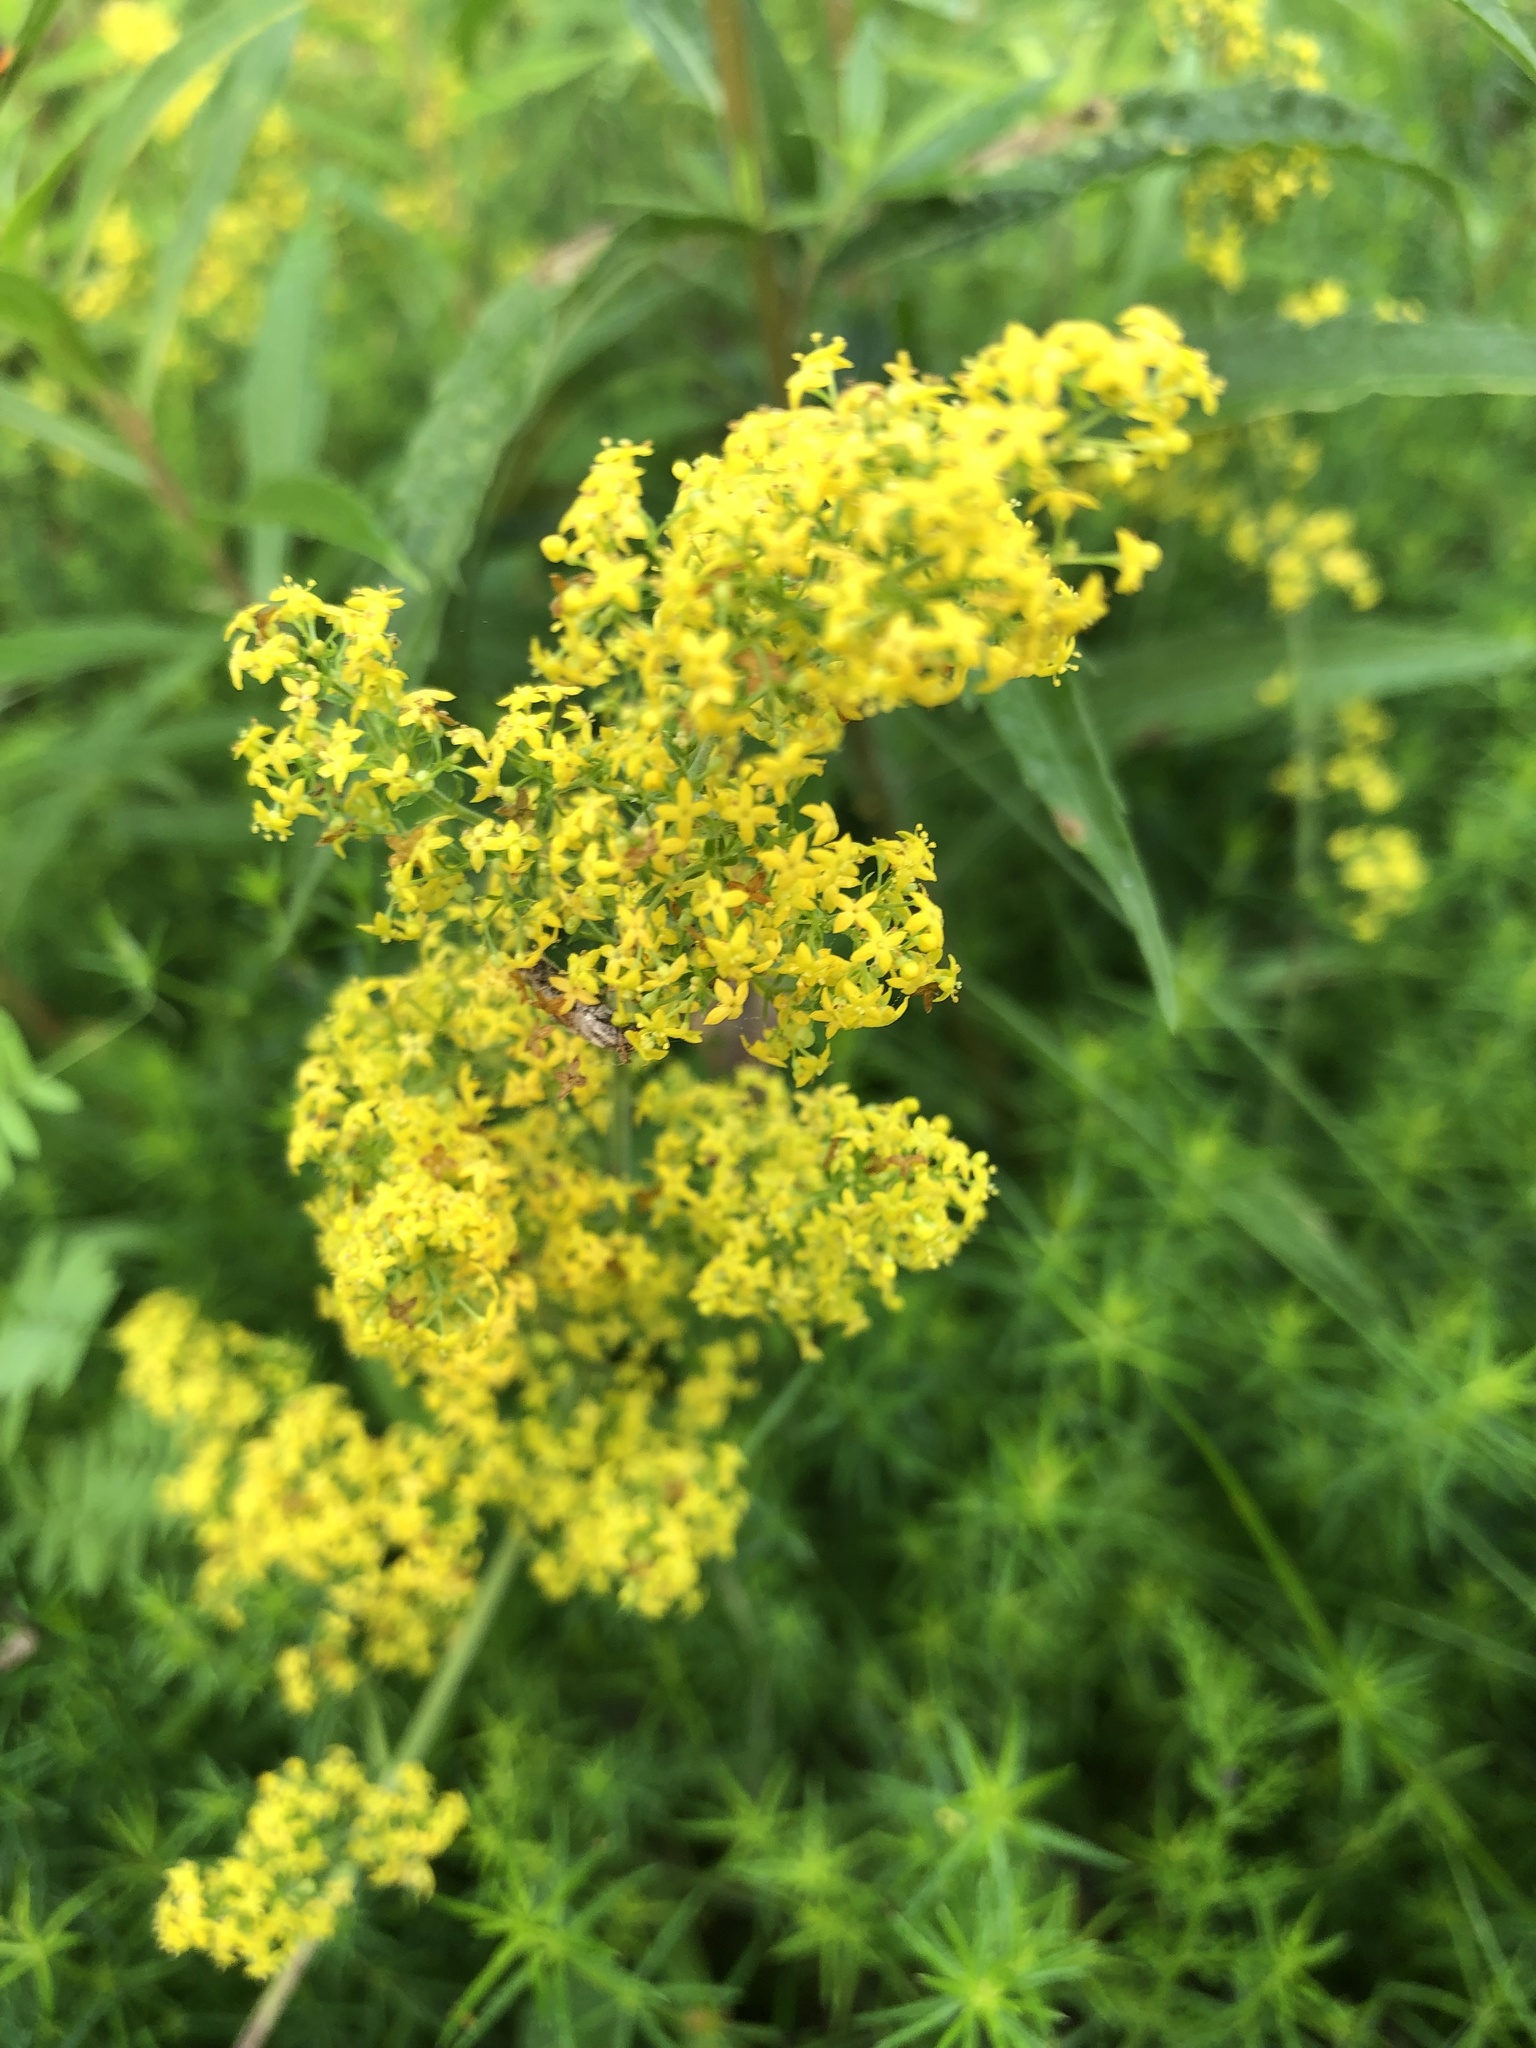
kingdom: Plantae
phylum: Tracheophyta
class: Magnoliopsida
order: Gentianales
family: Rubiaceae
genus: Galium
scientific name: Galium verum
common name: Lady's bedstraw
